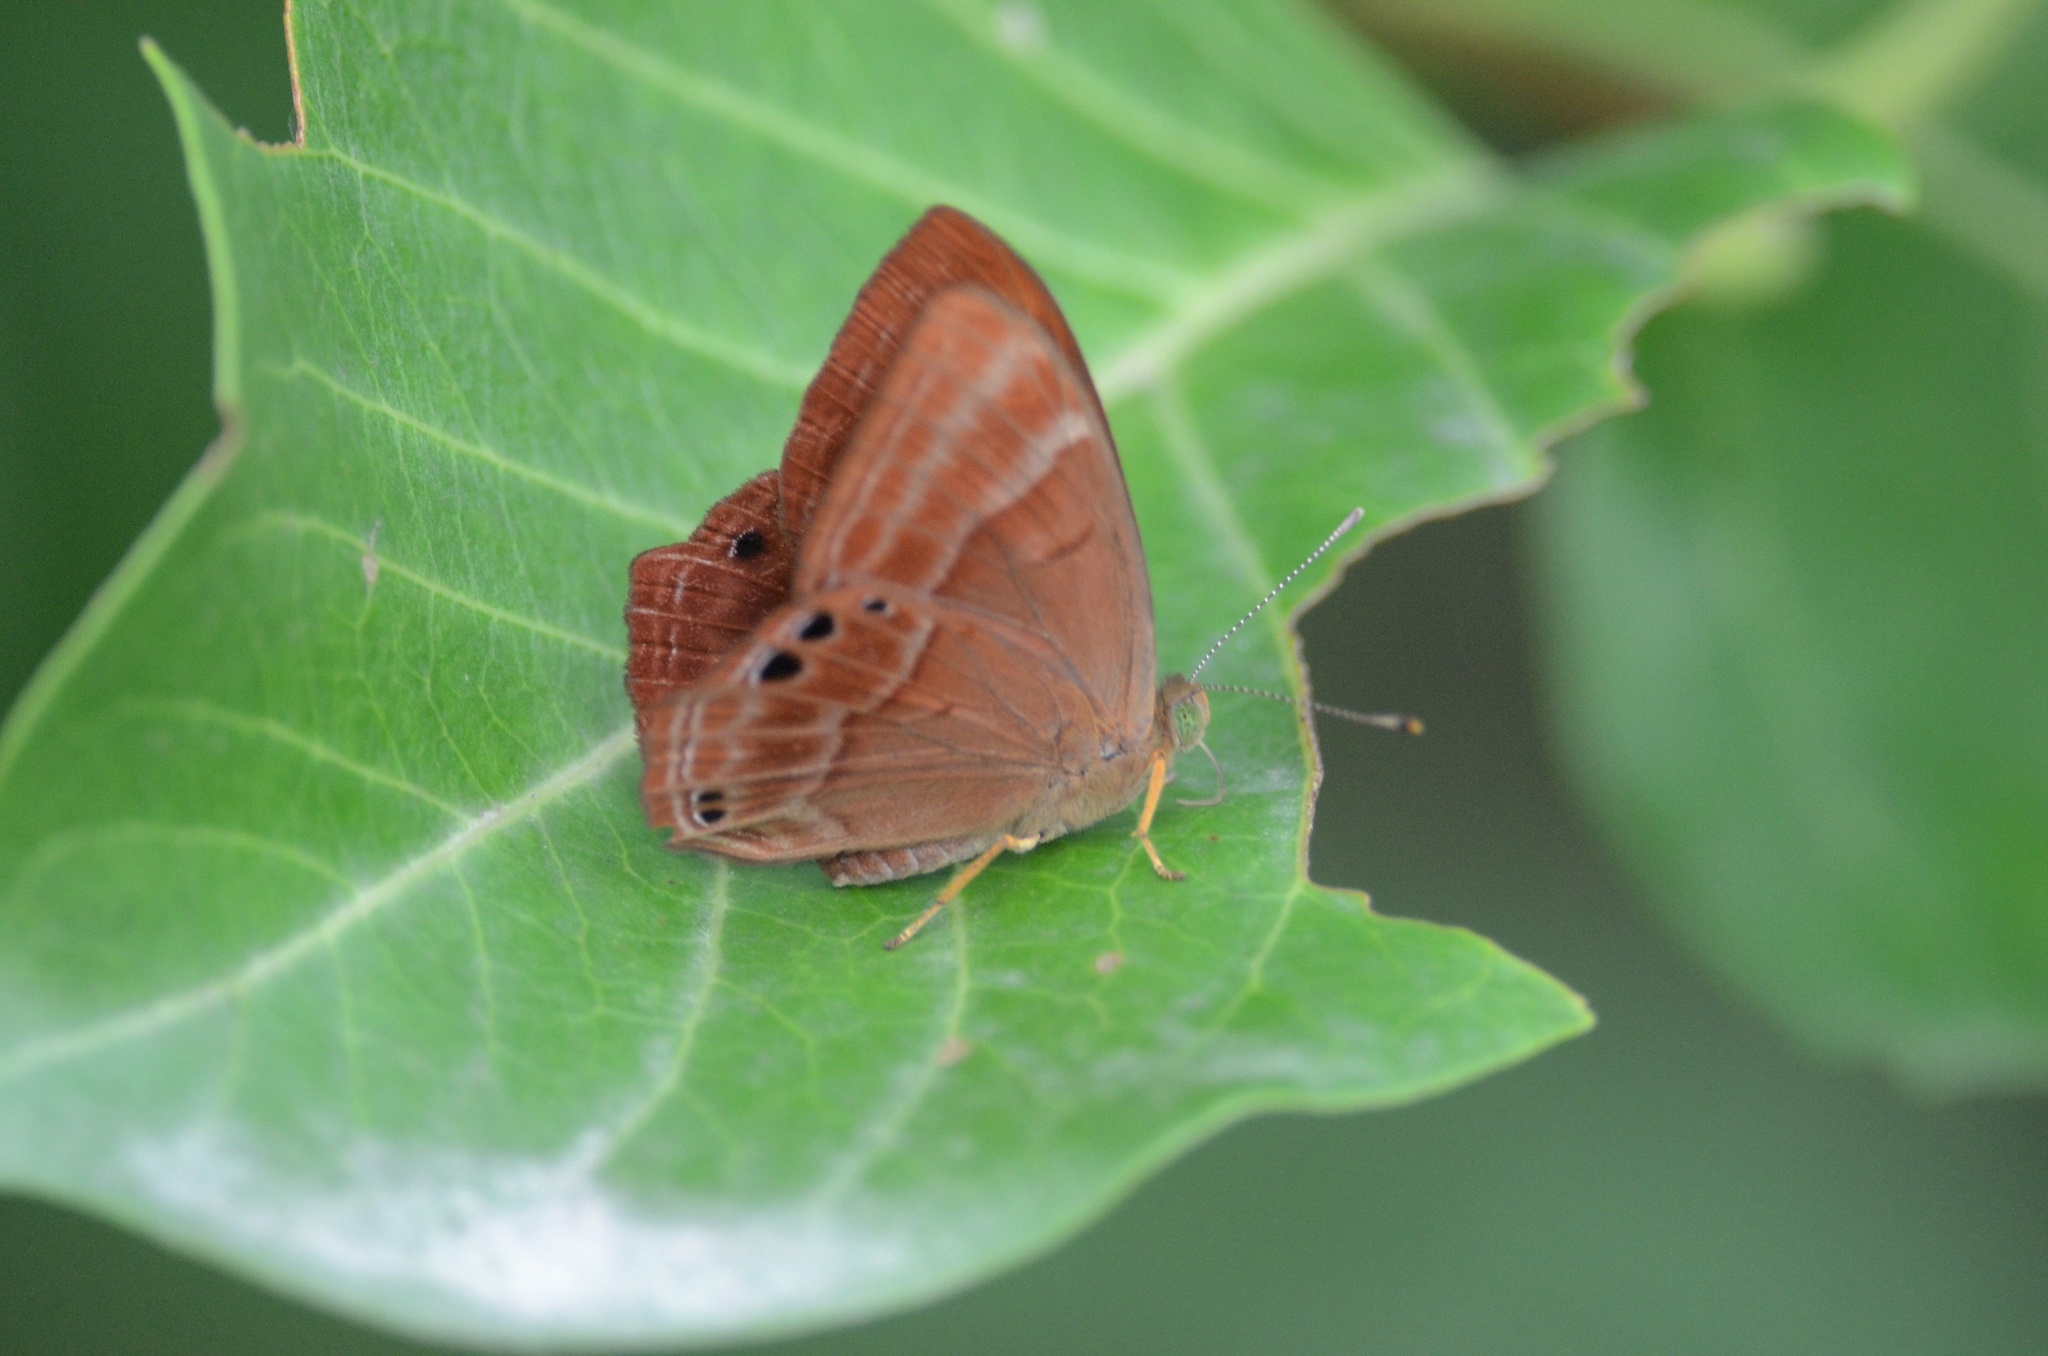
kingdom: Animalia
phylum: Arthropoda
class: Insecta
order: Lepidoptera
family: Lycaenidae
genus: Abisara
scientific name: Abisara
